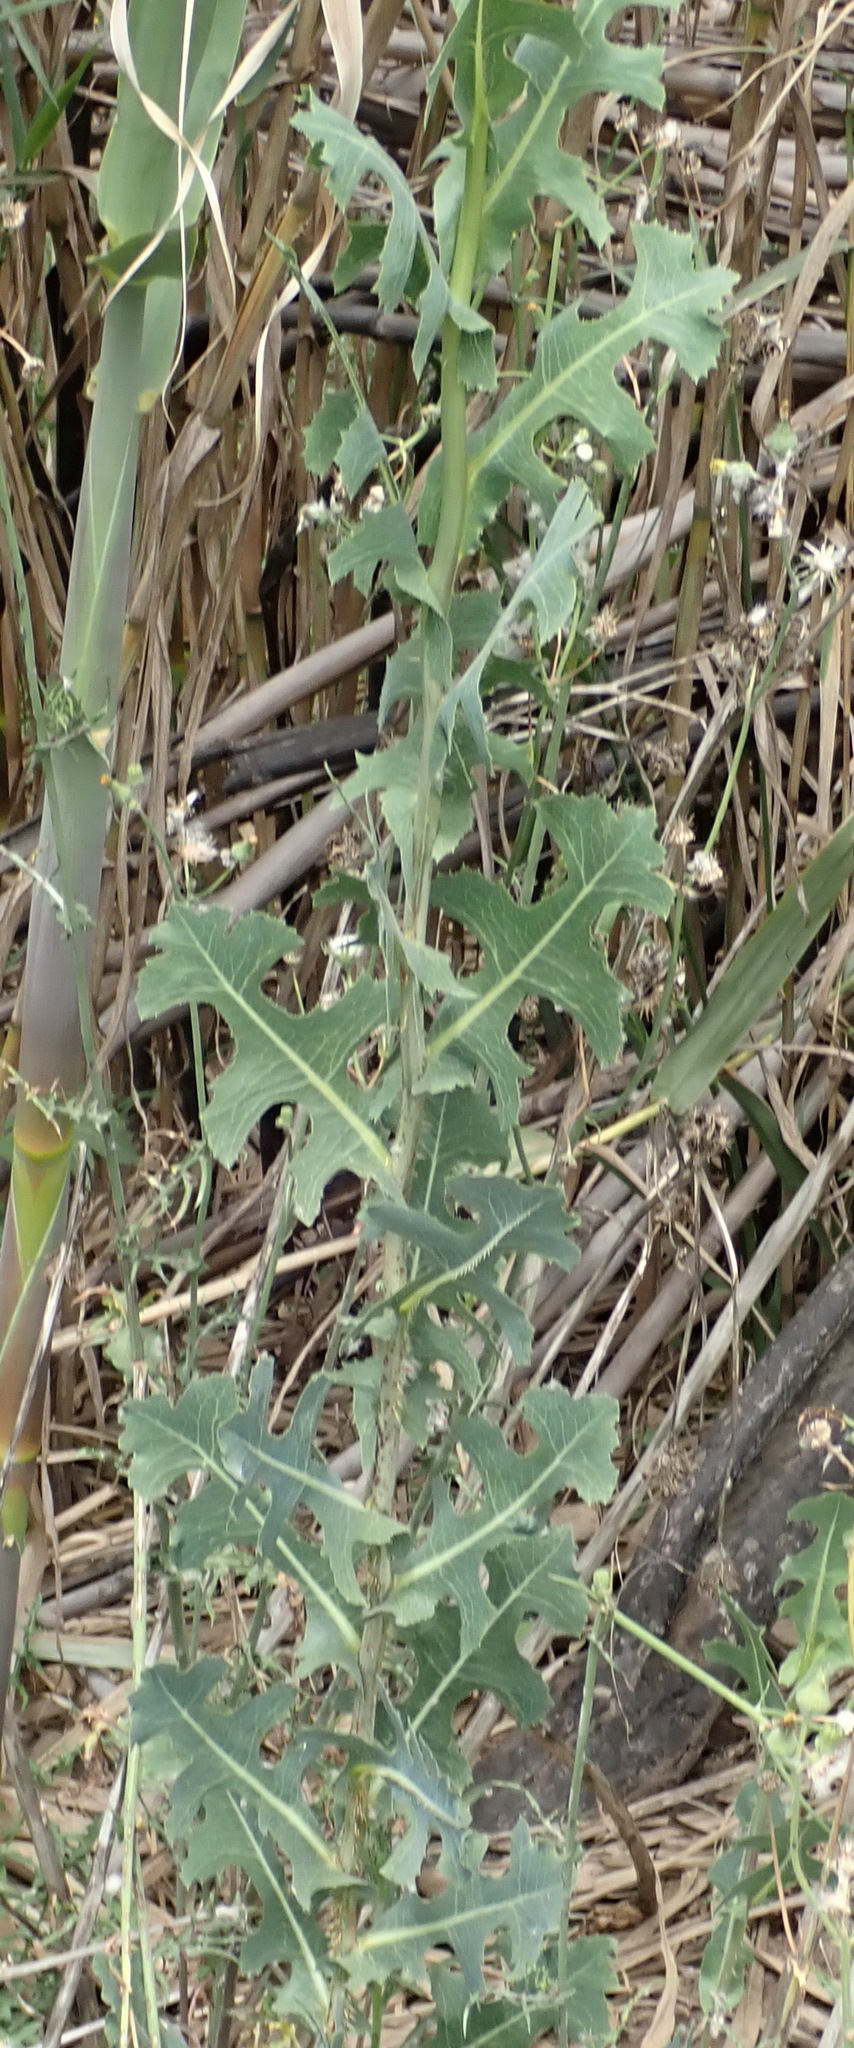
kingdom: Plantae
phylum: Tracheophyta
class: Magnoliopsida
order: Asterales
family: Asteraceae
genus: Lactuca
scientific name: Lactuca serriola
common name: Prickly lettuce
